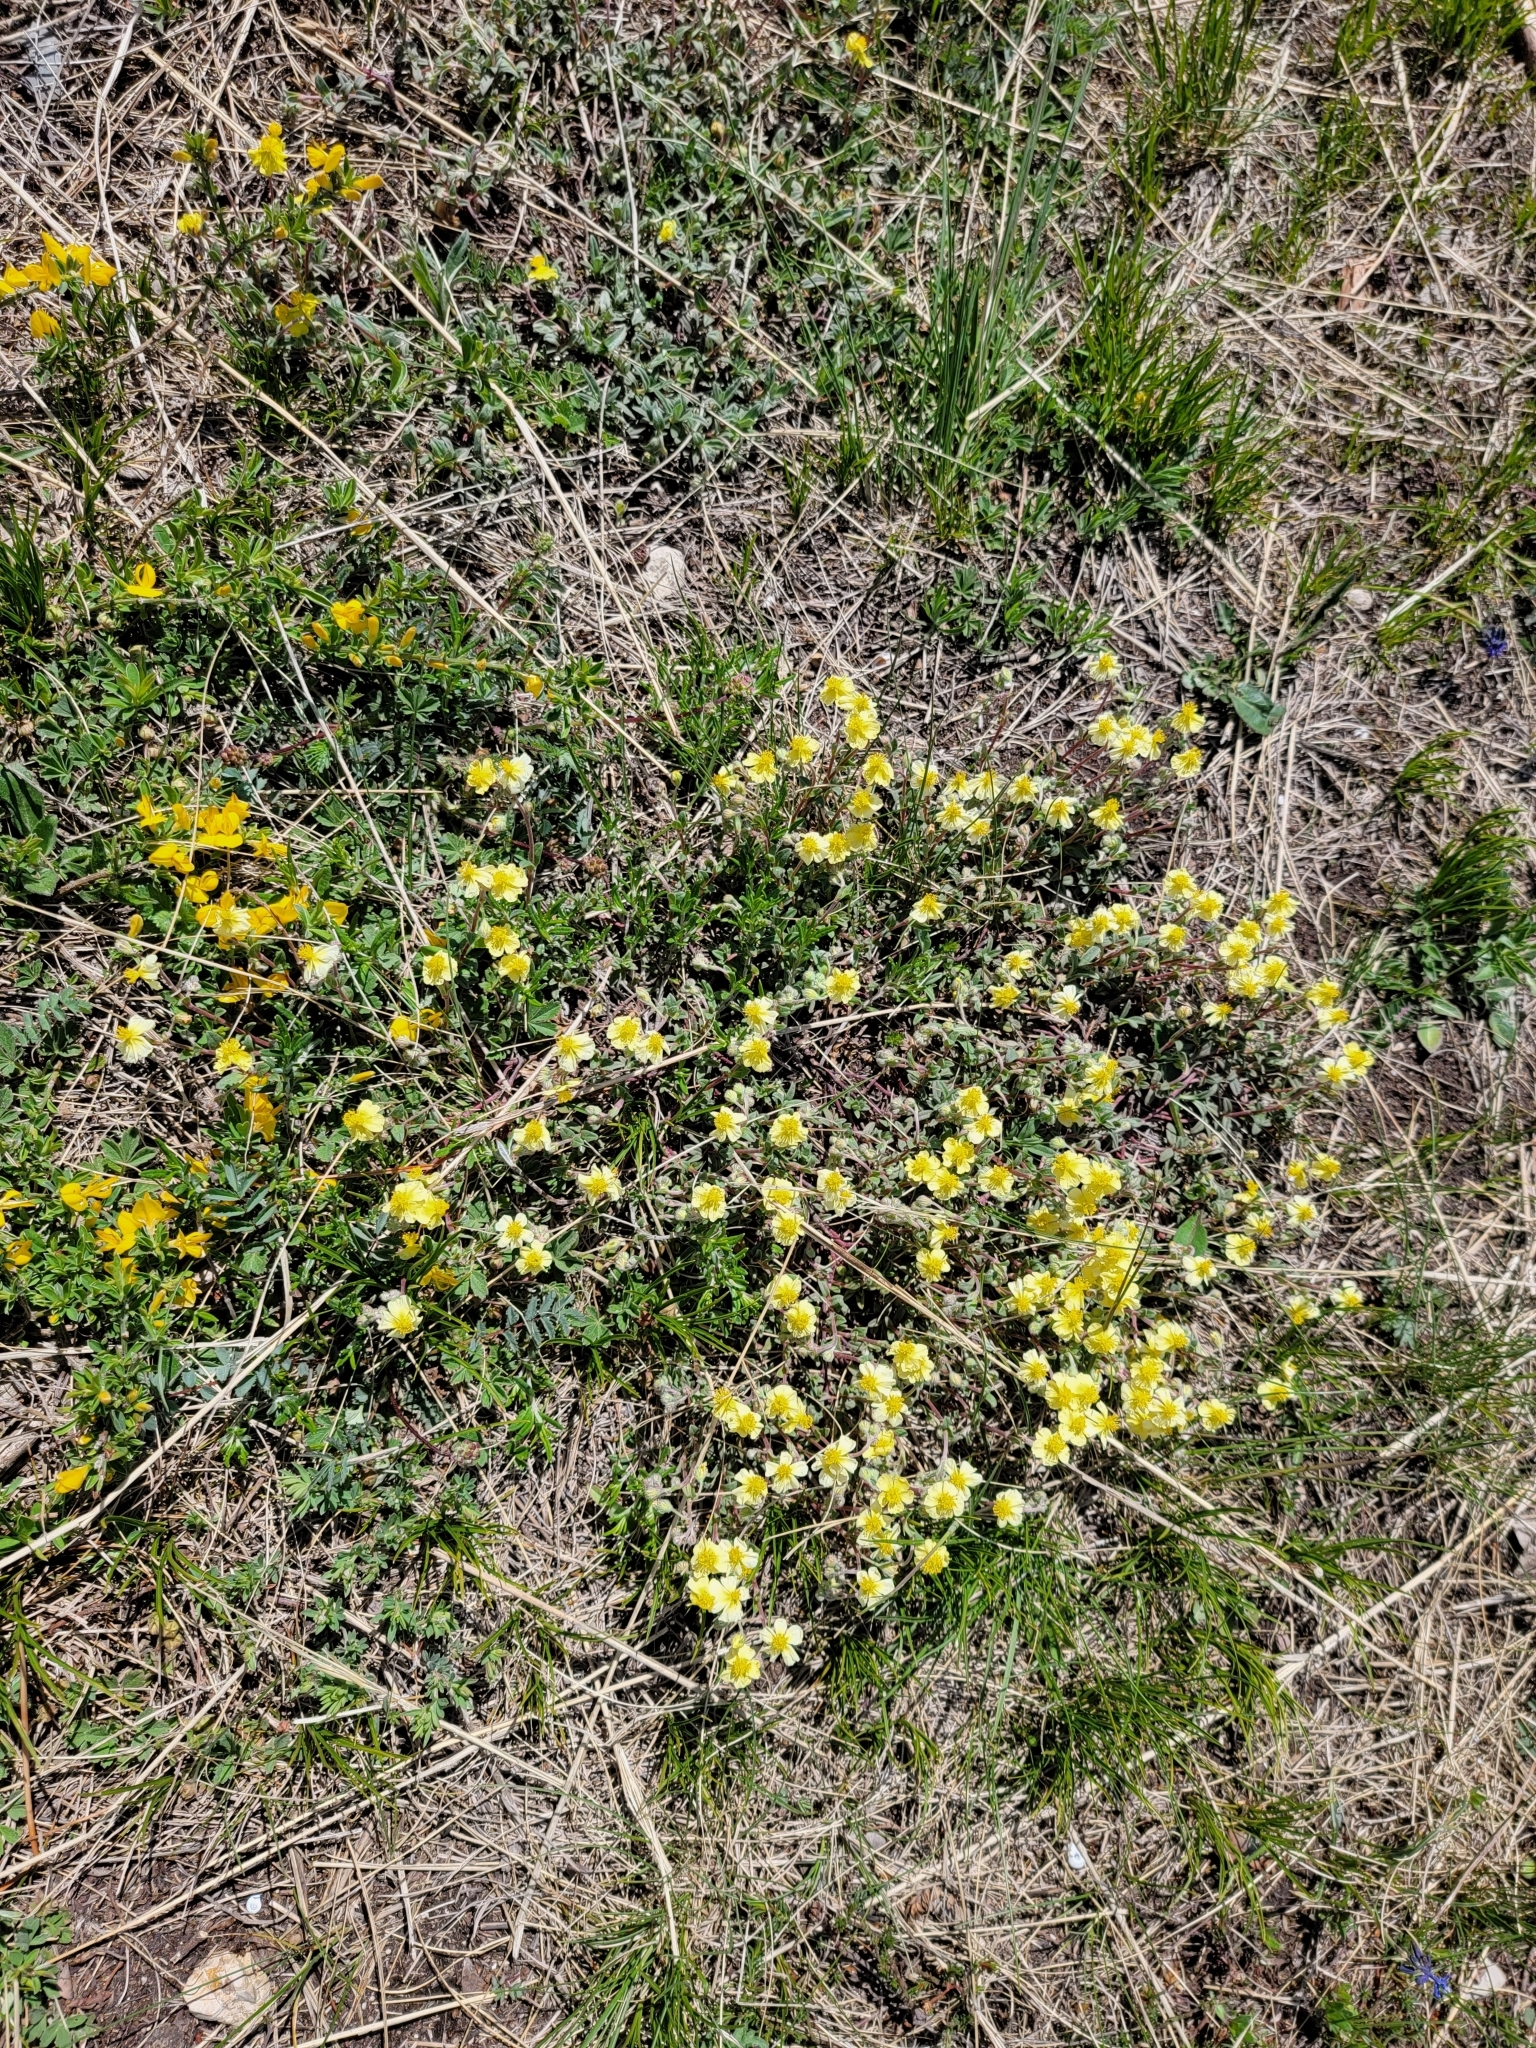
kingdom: Plantae
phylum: Tracheophyta
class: Magnoliopsida
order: Malvales
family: Cistaceae
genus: Helianthemum
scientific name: Helianthemum canum
